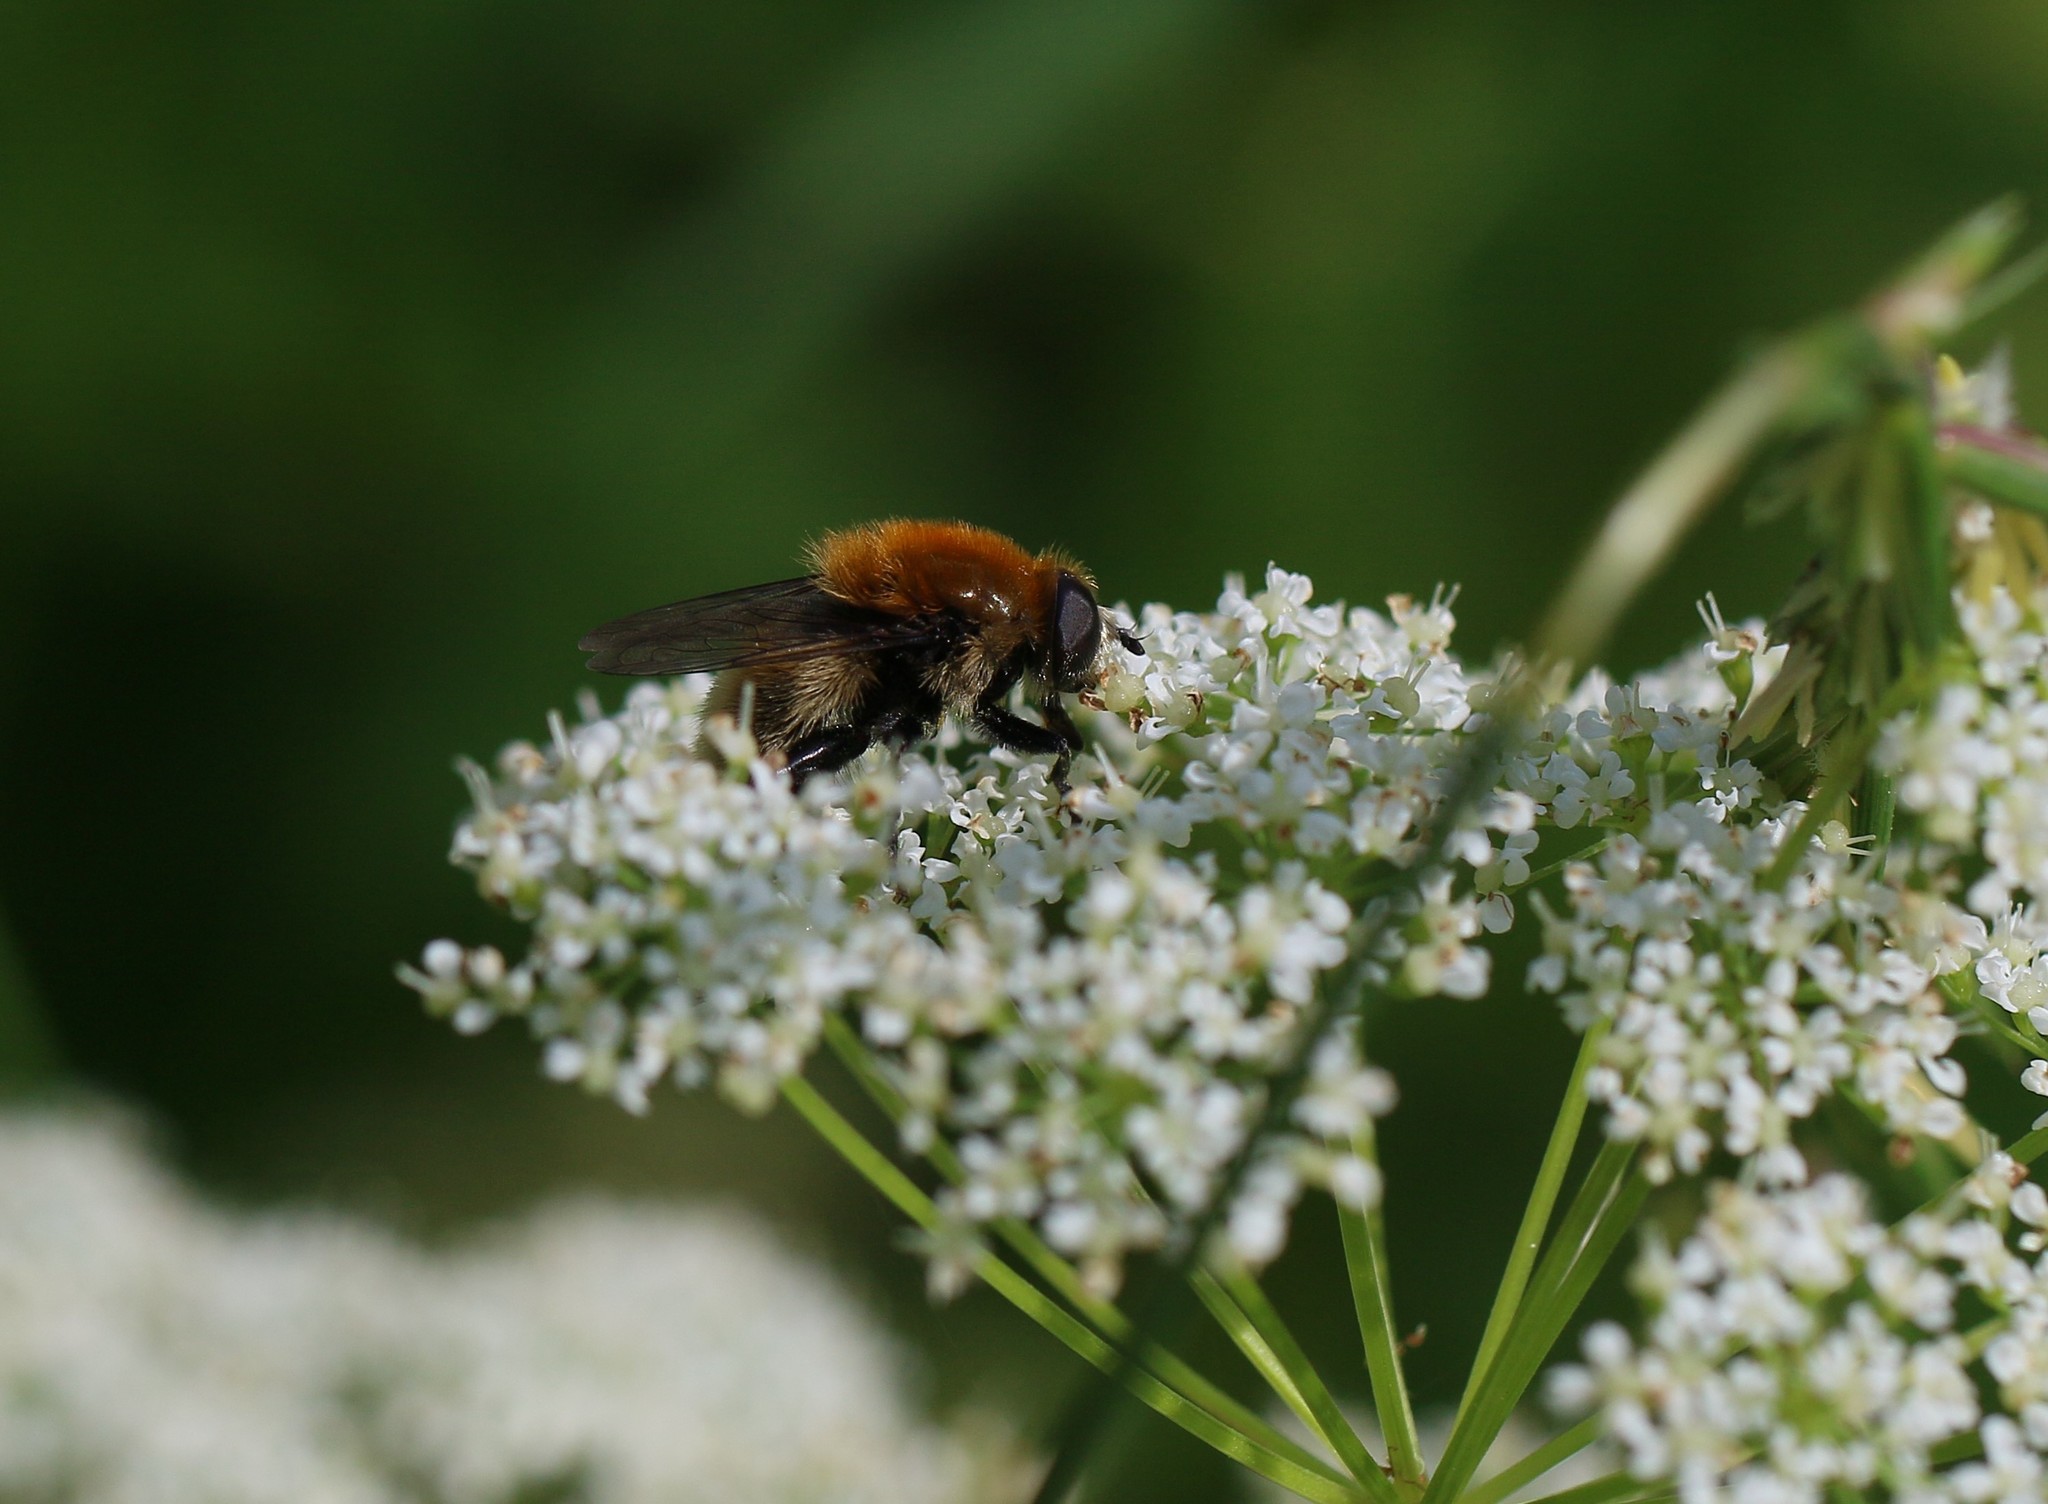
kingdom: Animalia
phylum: Arthropoda
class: Insecta
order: Diptera
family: Syrphidae
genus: Merodon
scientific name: Merodon equestris
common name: Greater bulb-fly
